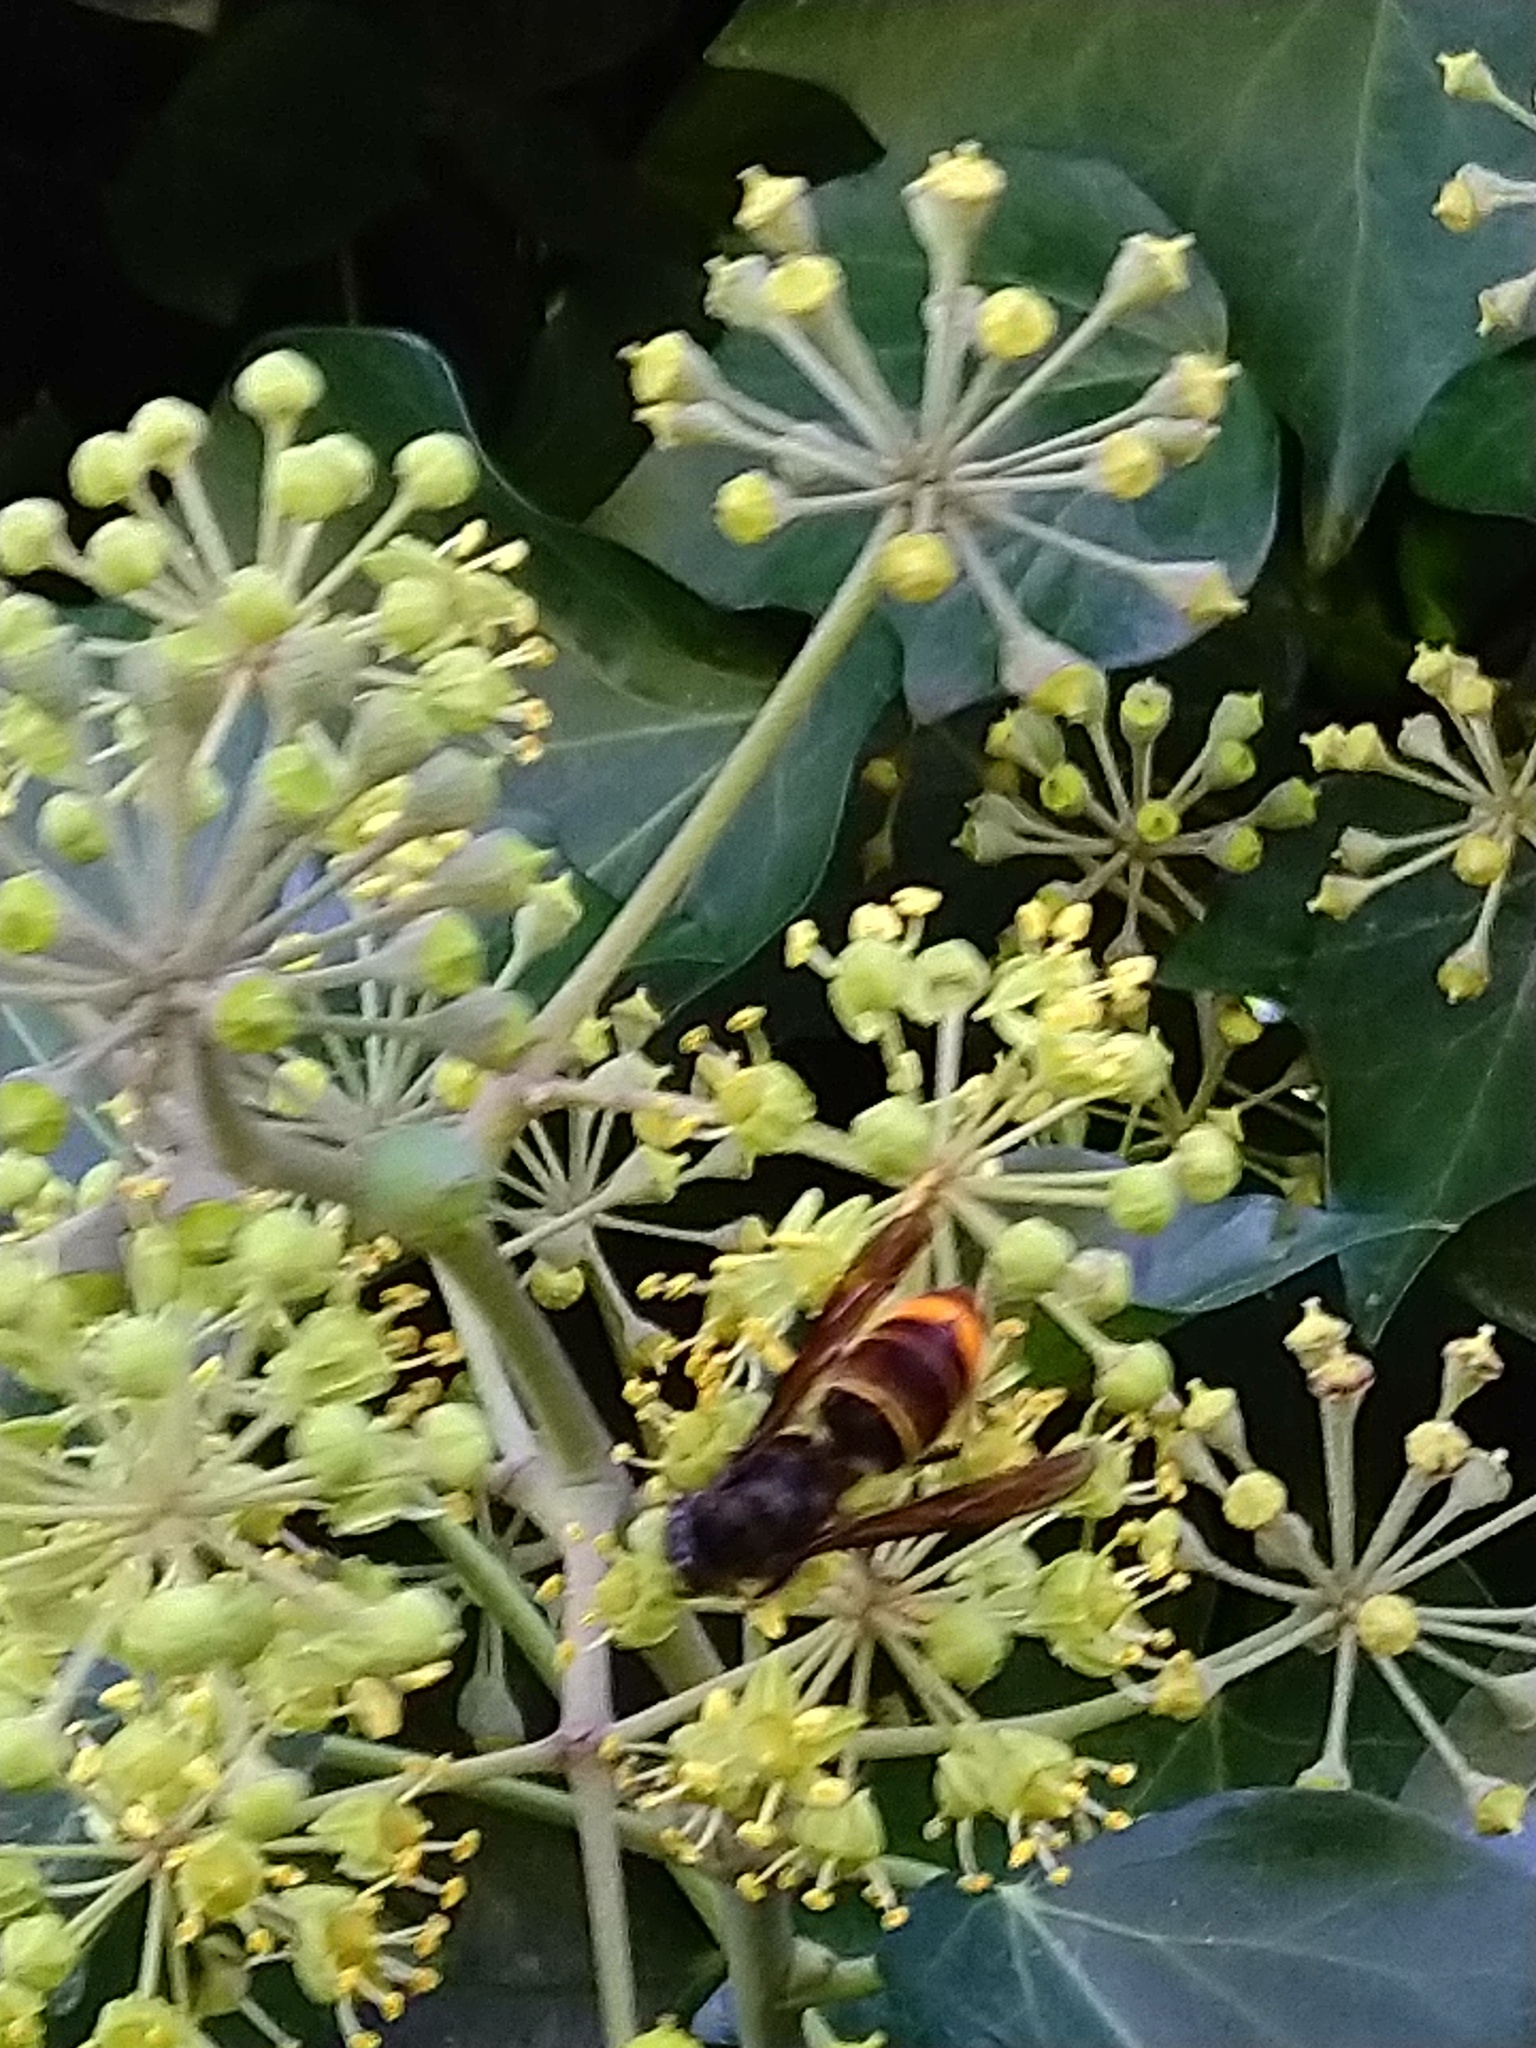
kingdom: Animalia
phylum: Arthropoda
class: Insecta
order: Hymenoptera
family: Vespidae
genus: Vespa
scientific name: Vespa velutina
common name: Asian hornet
